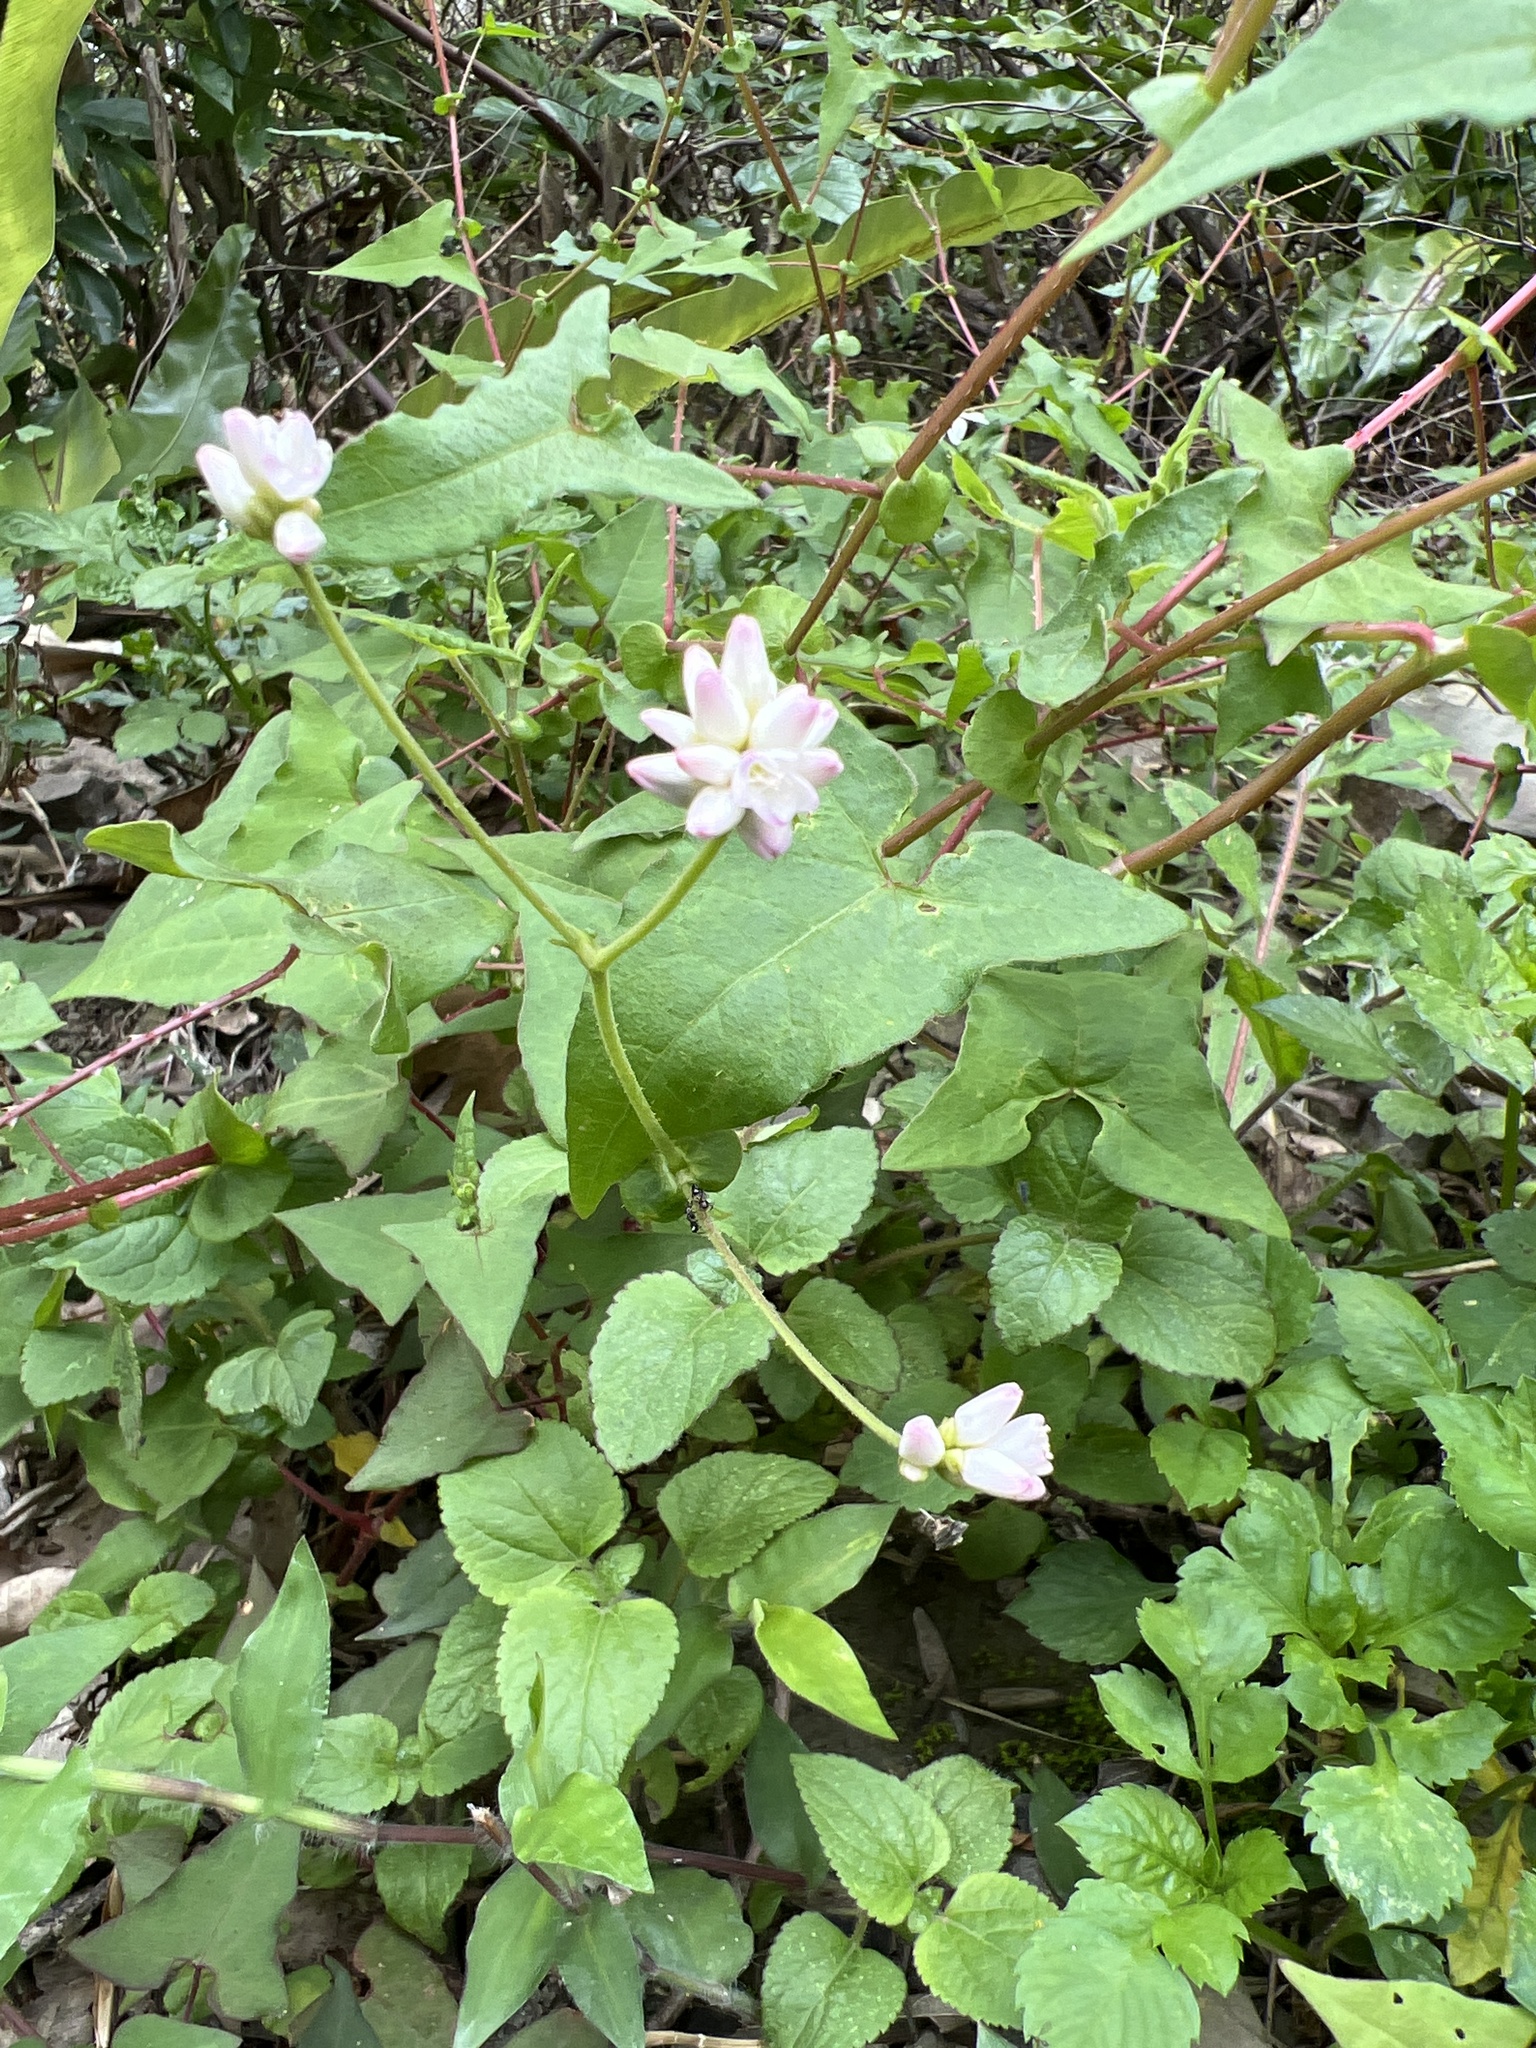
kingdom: Plantae
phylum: Tracheophyta
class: Magnoliopsida
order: Caryophyllales
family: Polygonaceae
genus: Persicaria
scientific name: Persicaria senticosa
